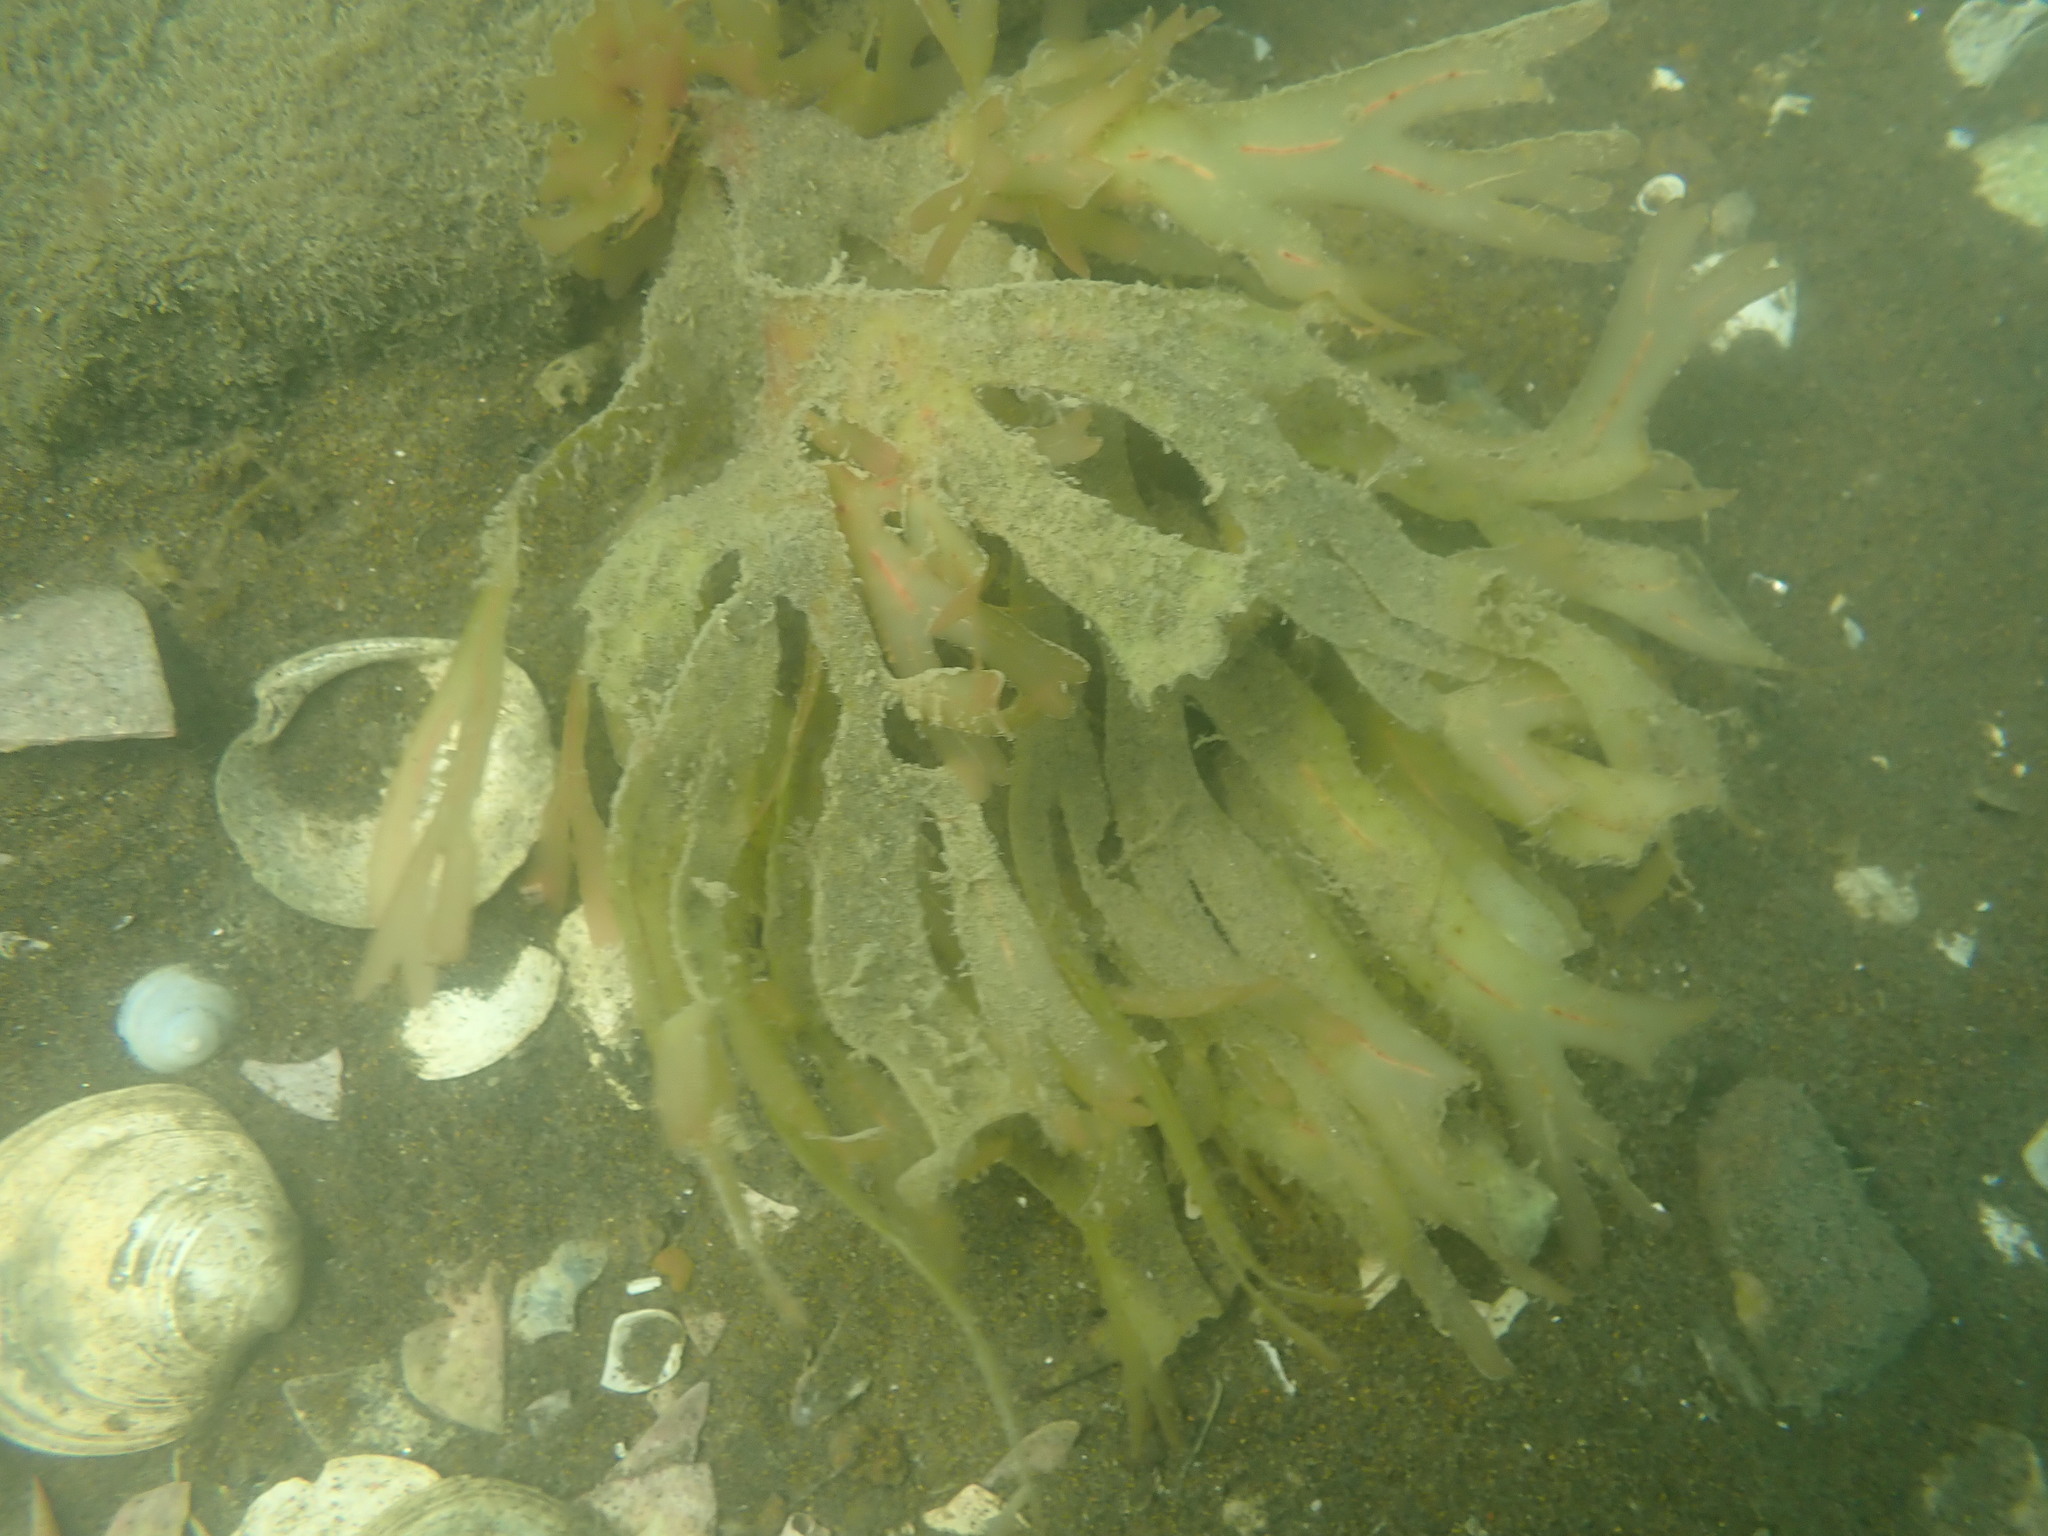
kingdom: Plantae
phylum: Rhodophyta
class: Florideophyceae
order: Gigartinales
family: Phyllophoraceae
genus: Stenogramma
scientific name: Stenogramma interruptum
